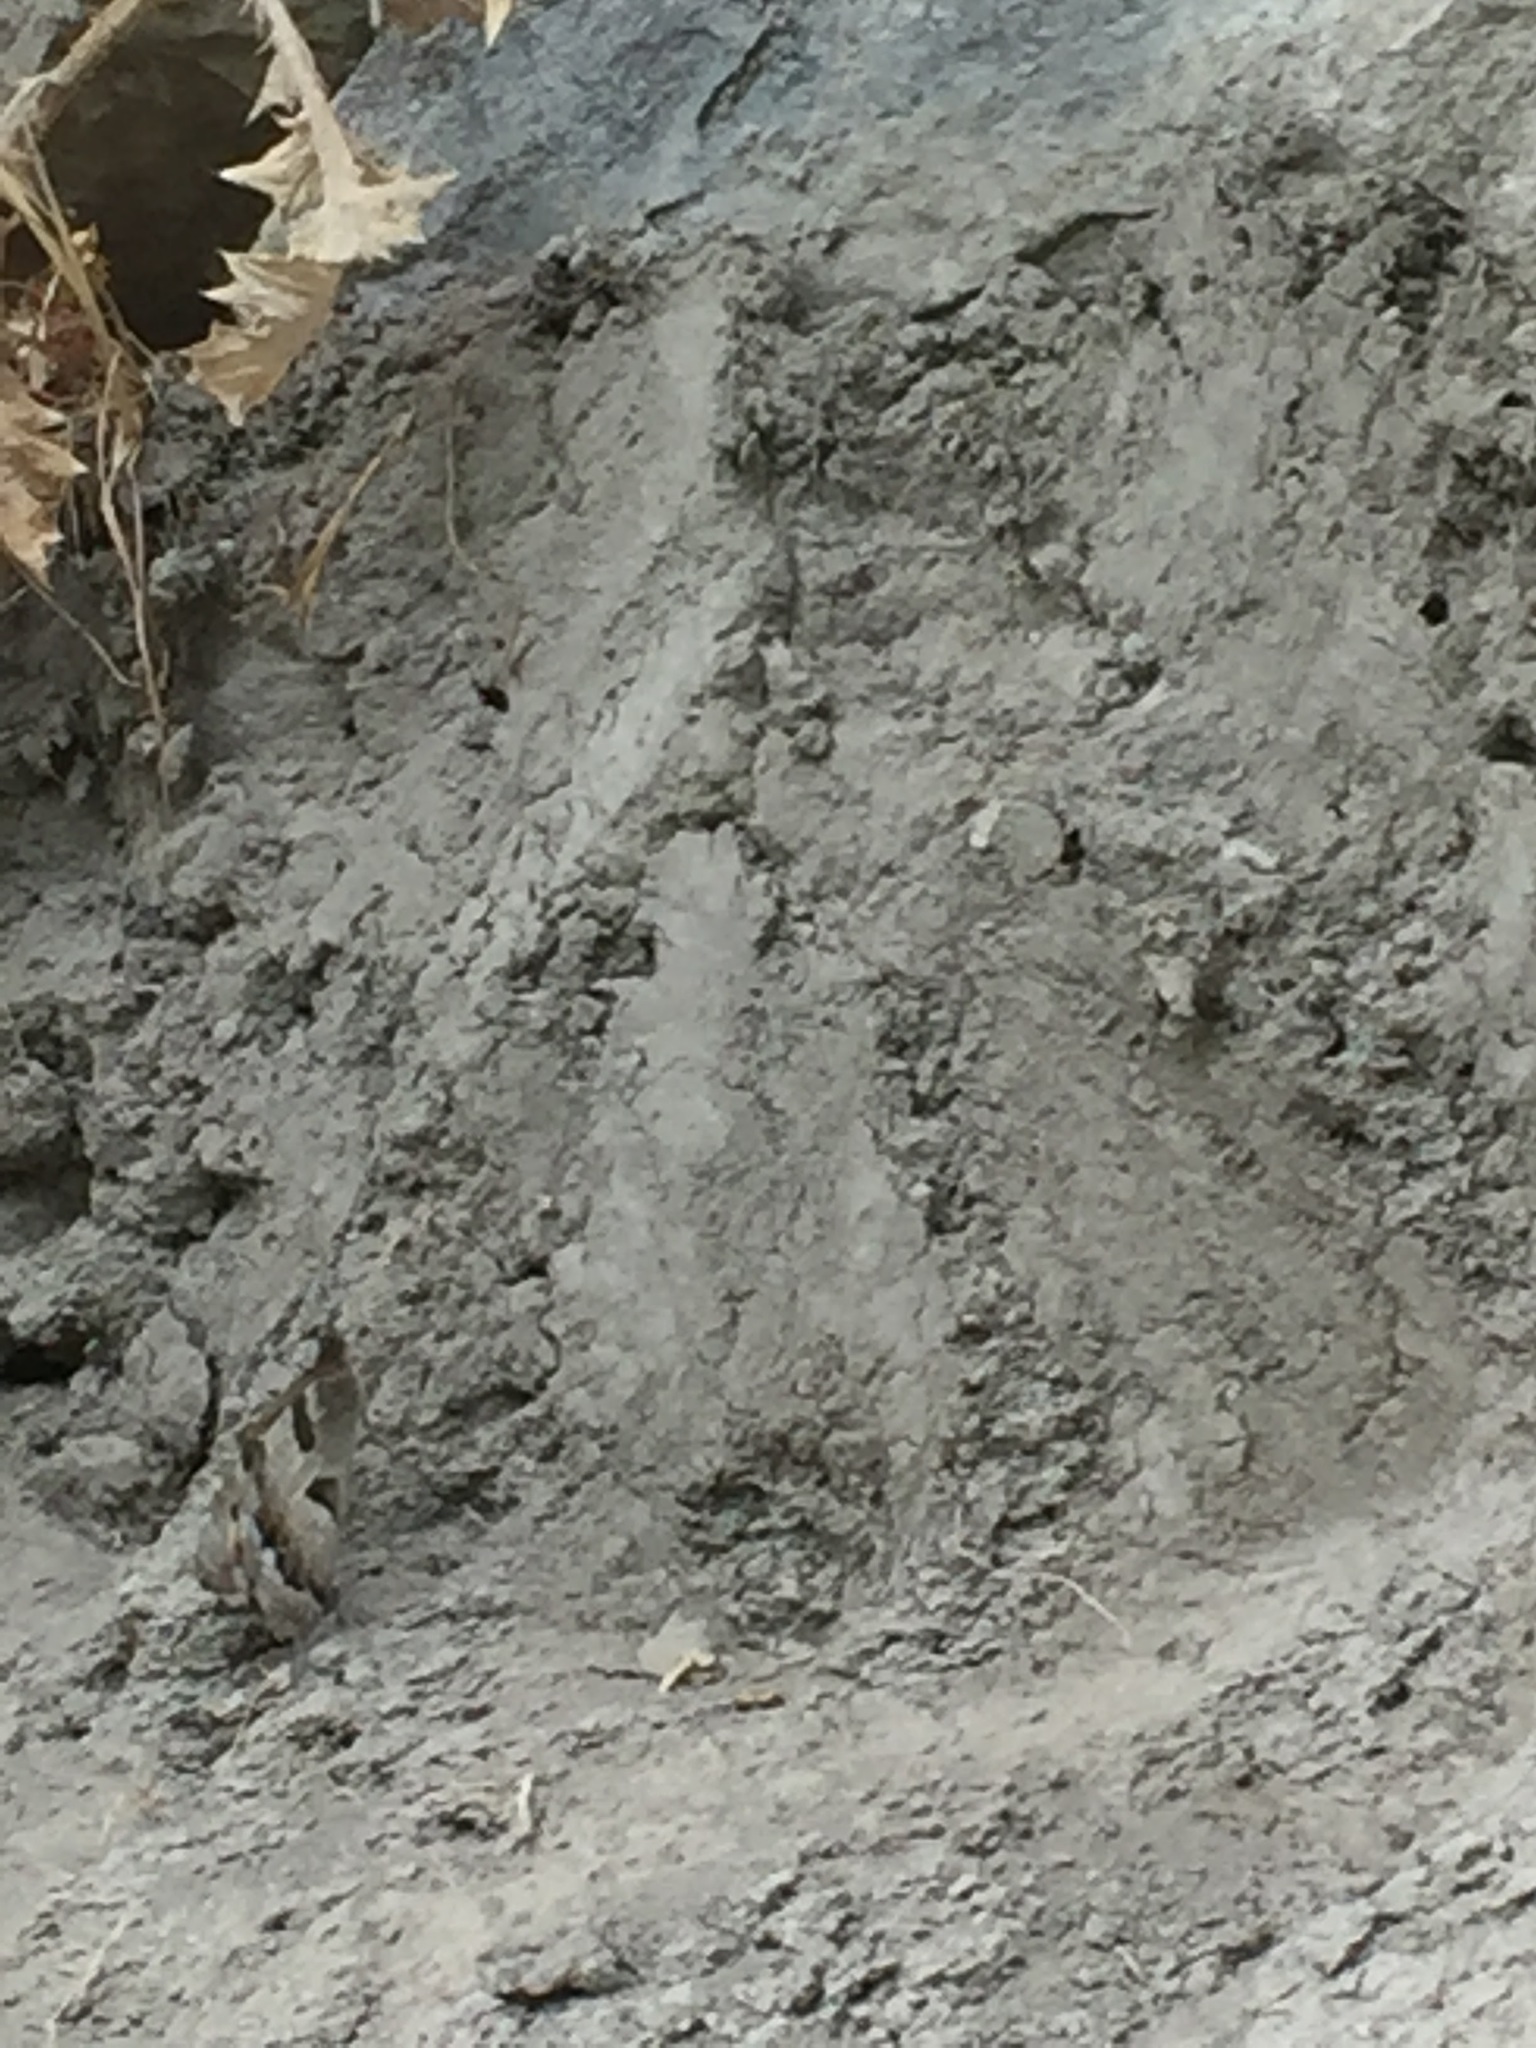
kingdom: Animalia
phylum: Arthropoda
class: Insecta
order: Lepidoptera
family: Nymphalidae
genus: Satyrus
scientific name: Satyrus briseis
